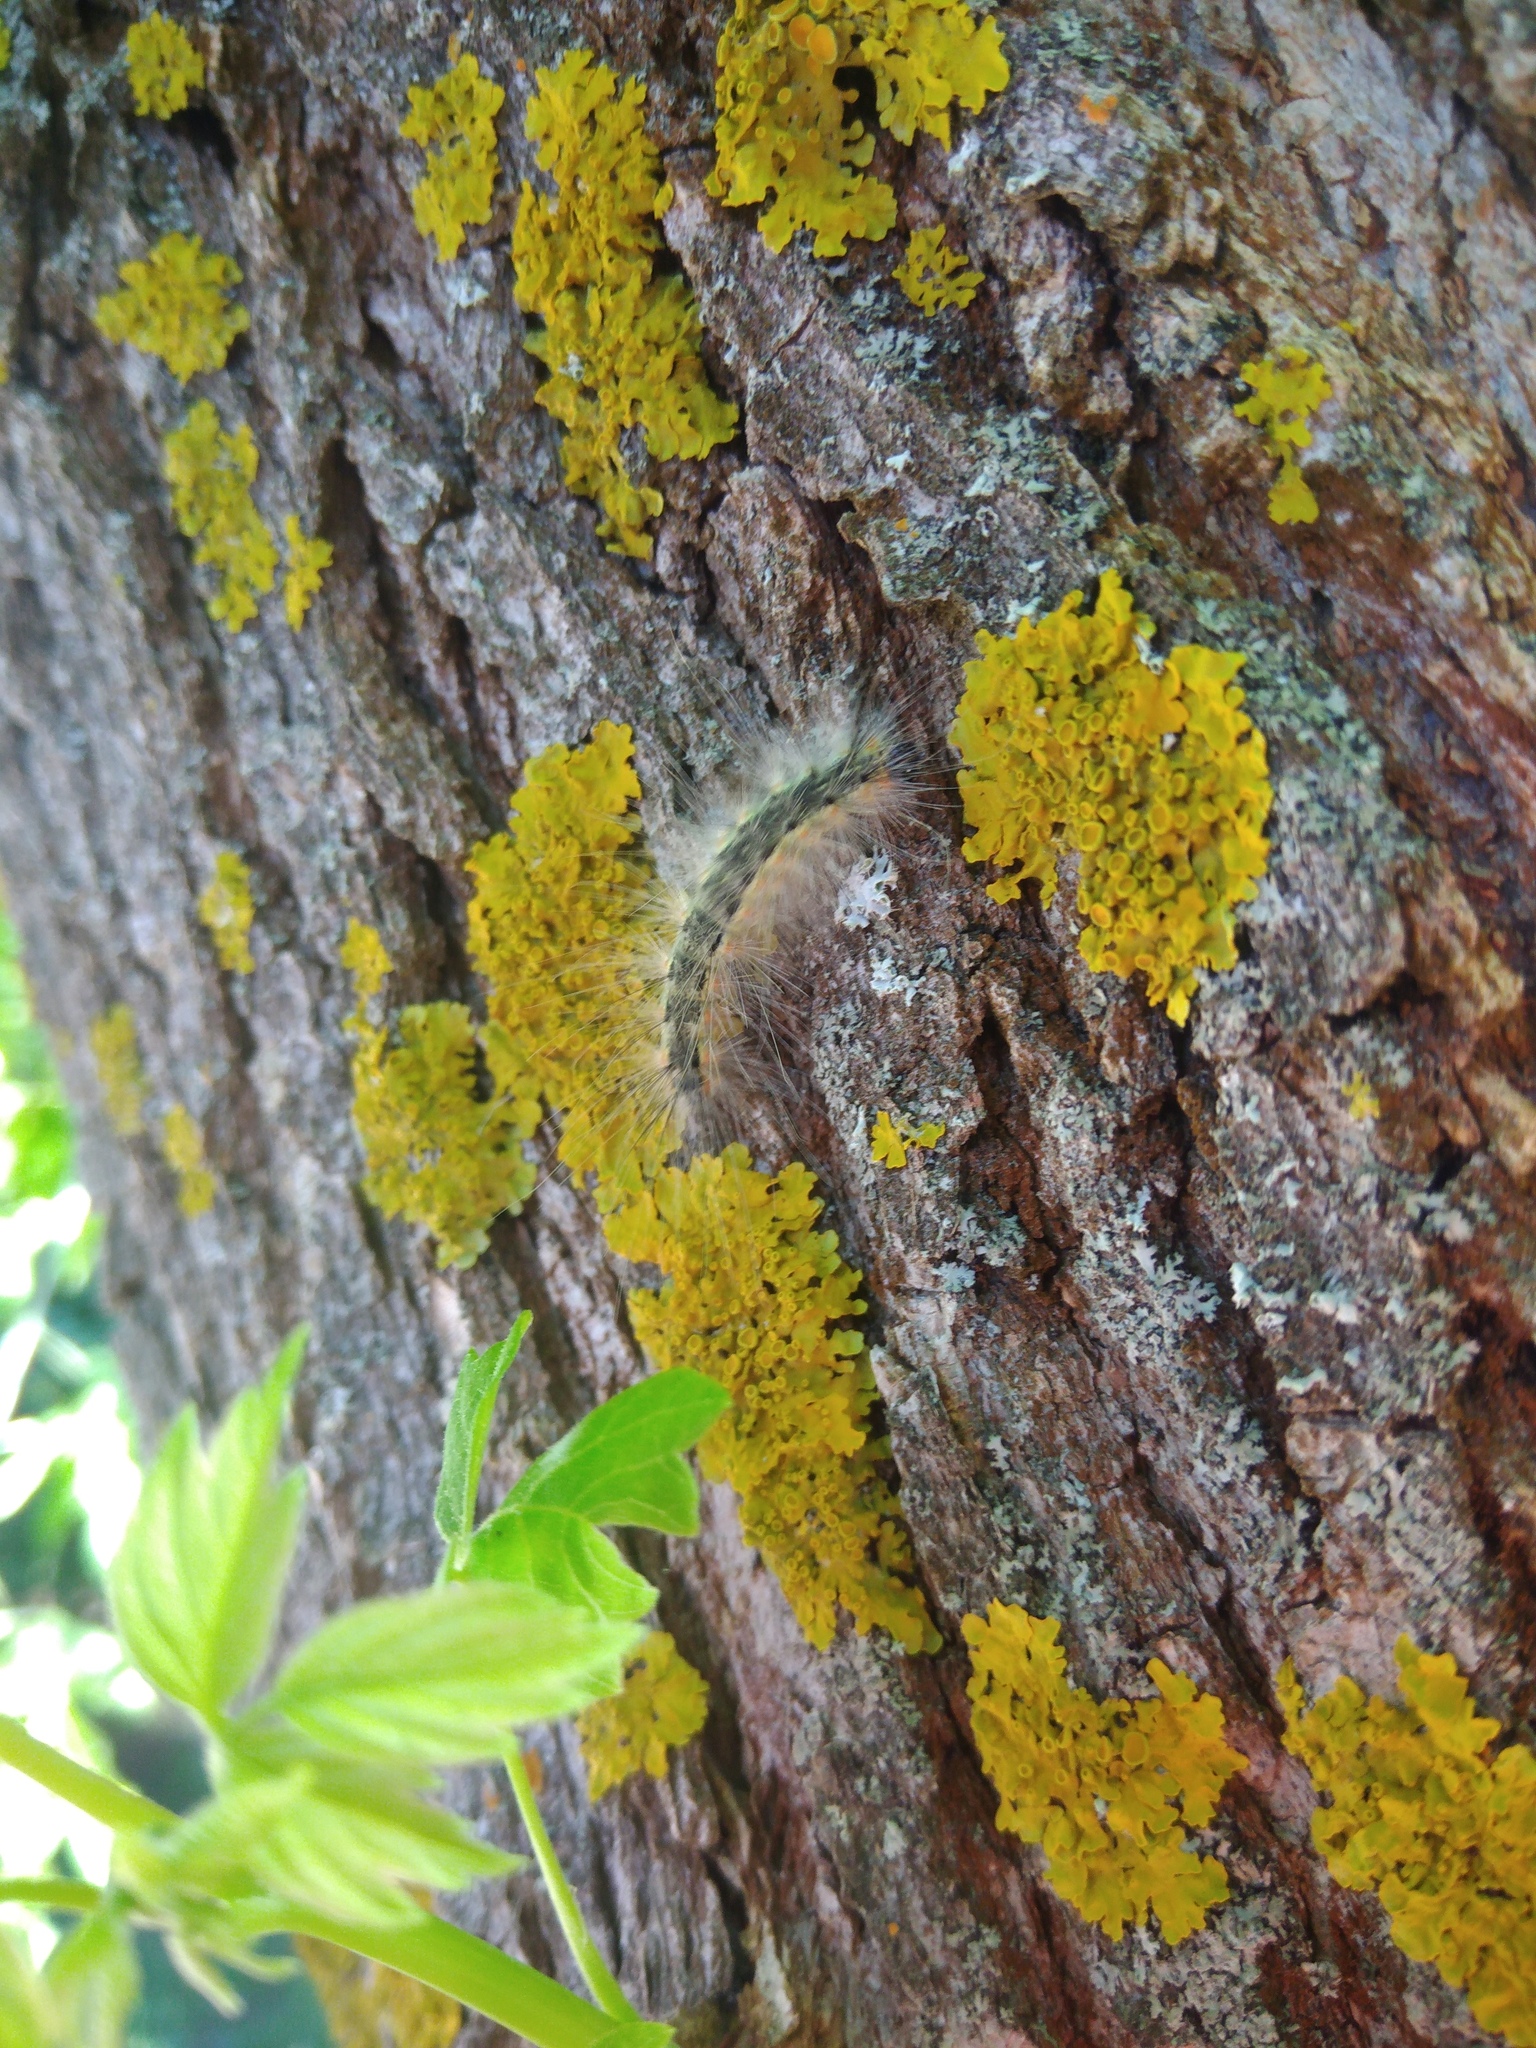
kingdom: Animalia
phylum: Arthropoda
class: Insecta
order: Lepidoptera
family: Erebidae
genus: Hyphantria
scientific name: Hyphantria cunea
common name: American white moth
